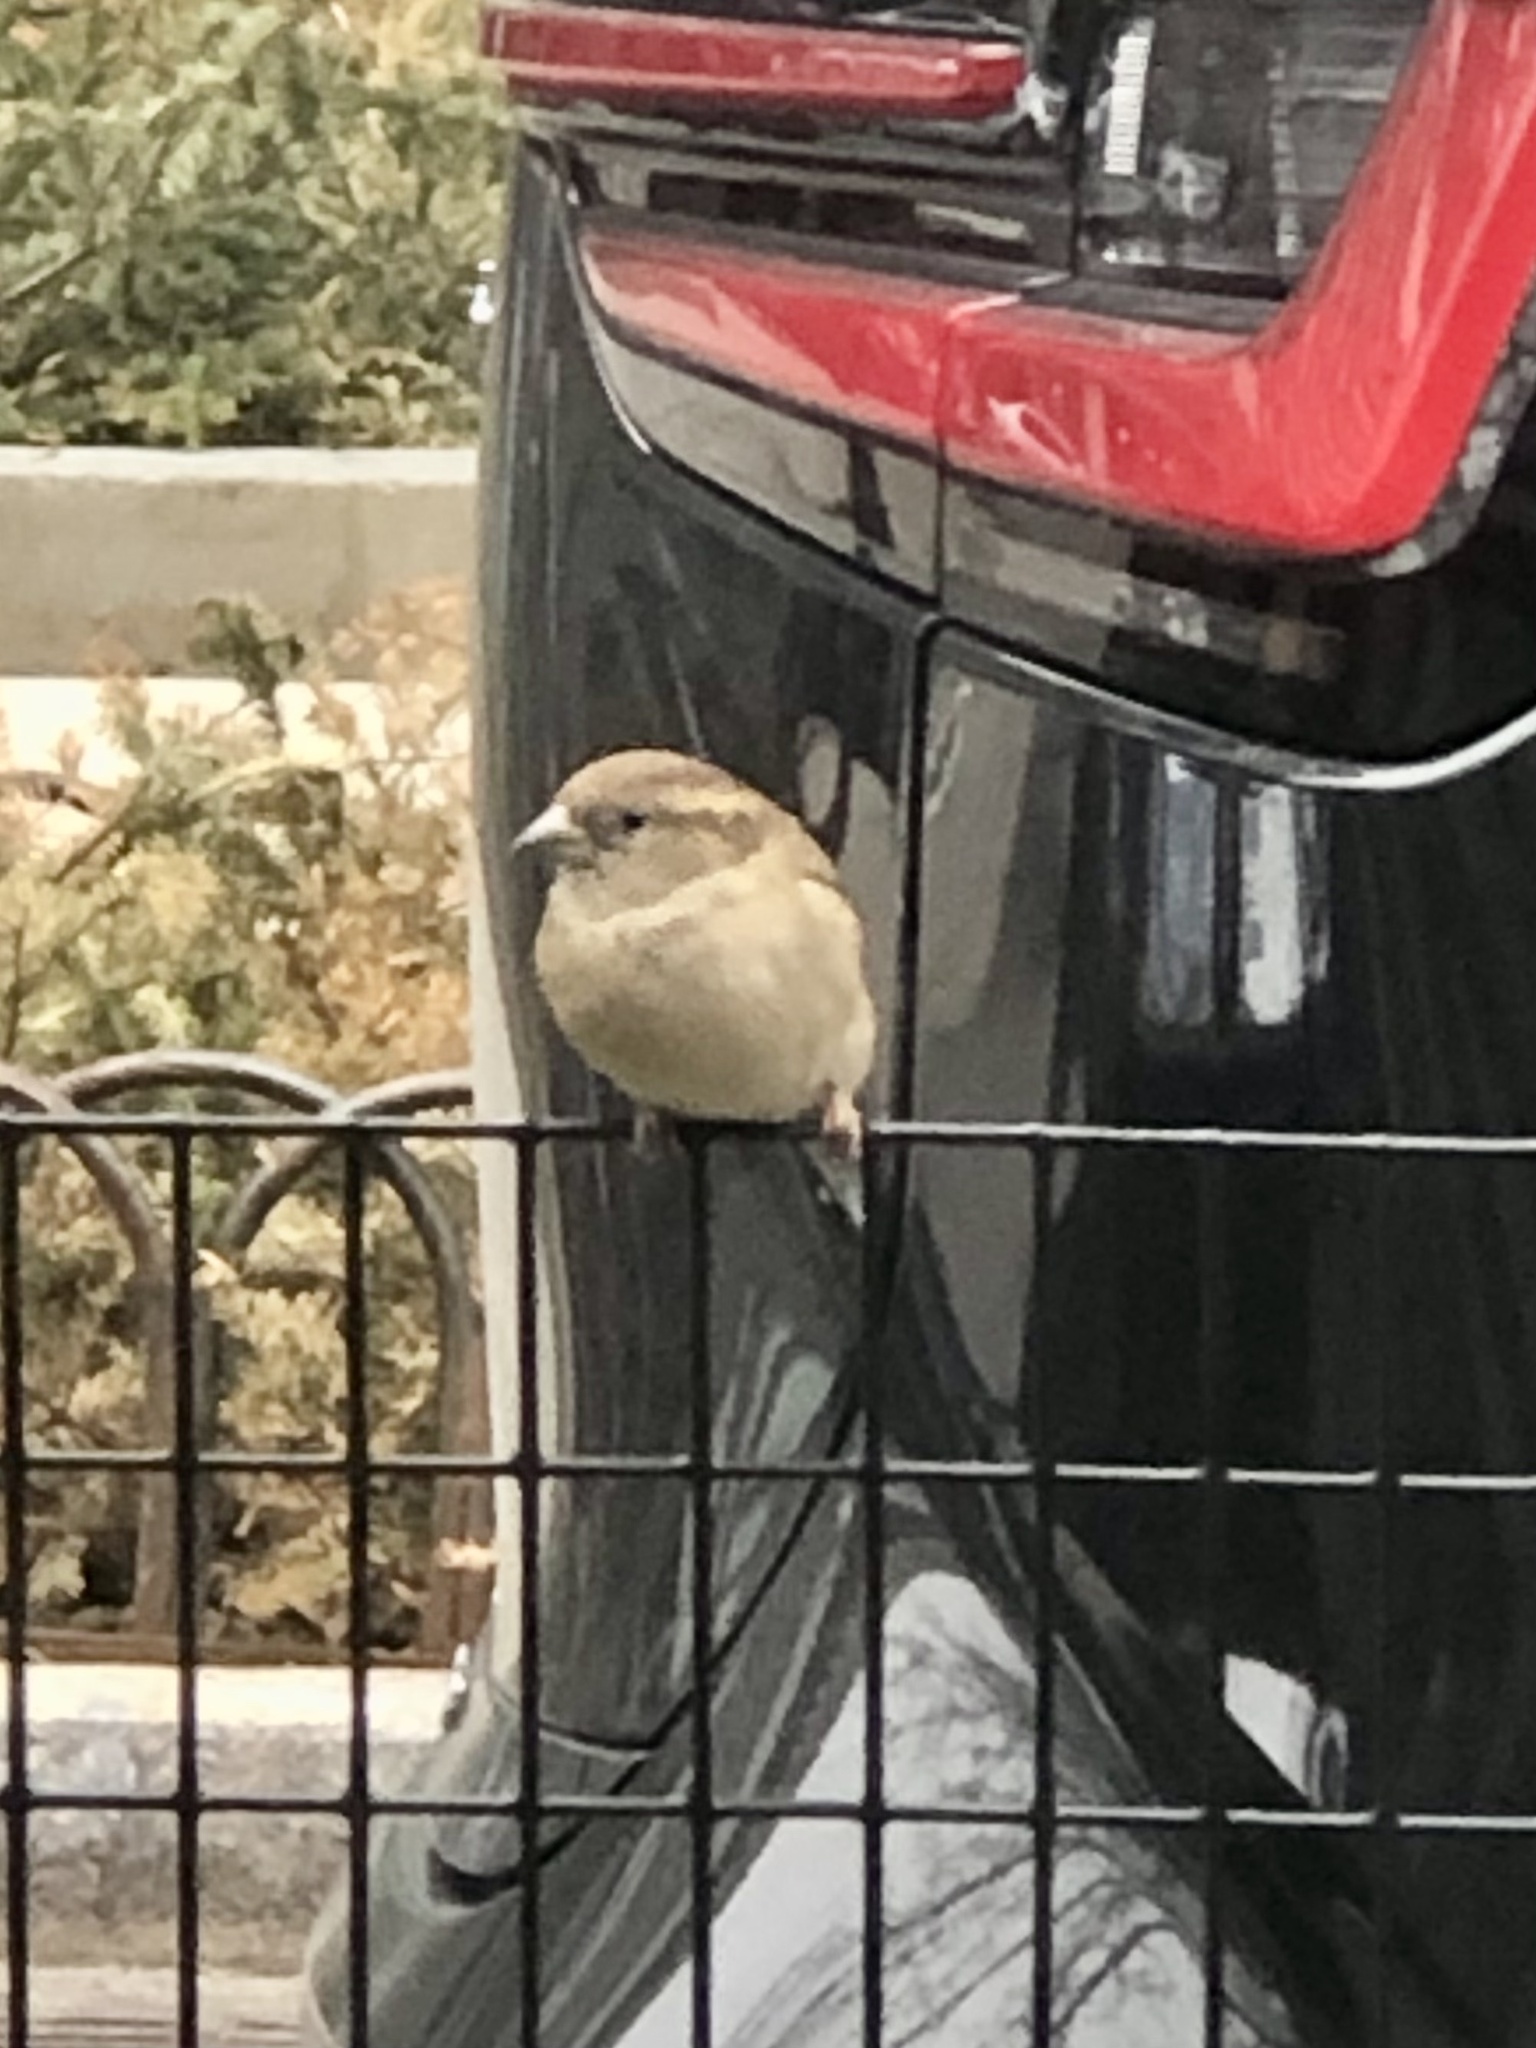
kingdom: Animalia
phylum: Chordata
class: Aves
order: Passeriformes
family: Passeridae
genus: Passer
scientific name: Passer domesticus
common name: House sparrow
